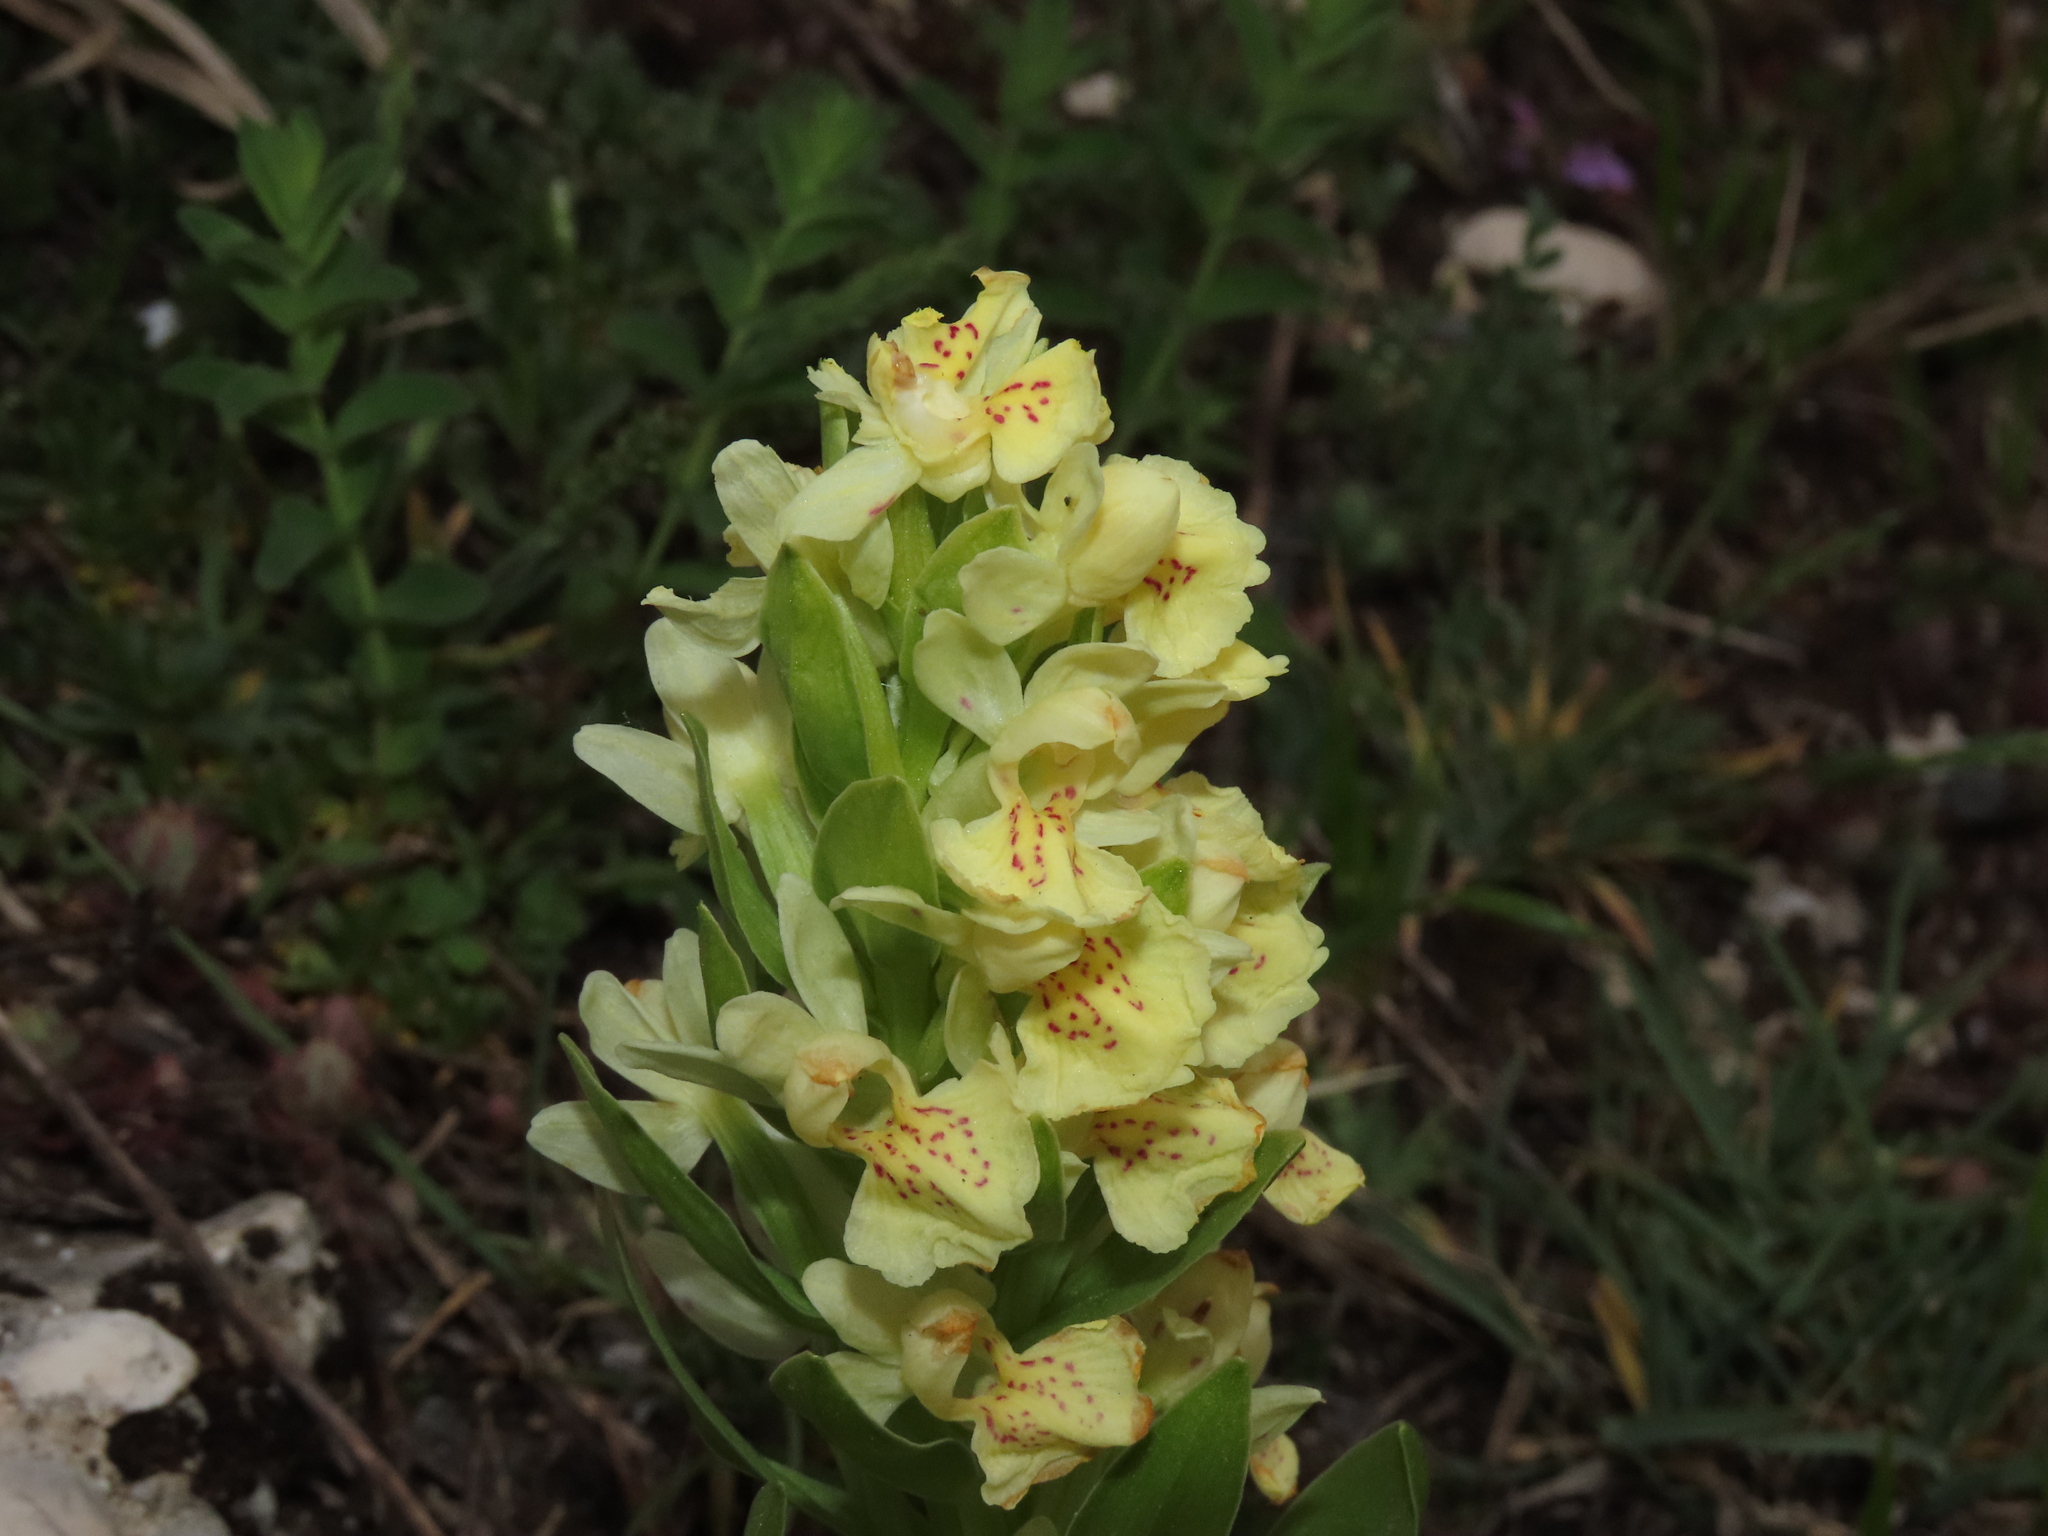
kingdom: Plantae
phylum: Tracheophyta
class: Liliopsida
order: Asparagales
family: Orchidaceae
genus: Dactylorhiza
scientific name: Dactylorhiza sambucina
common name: Elder-flowered orchid
